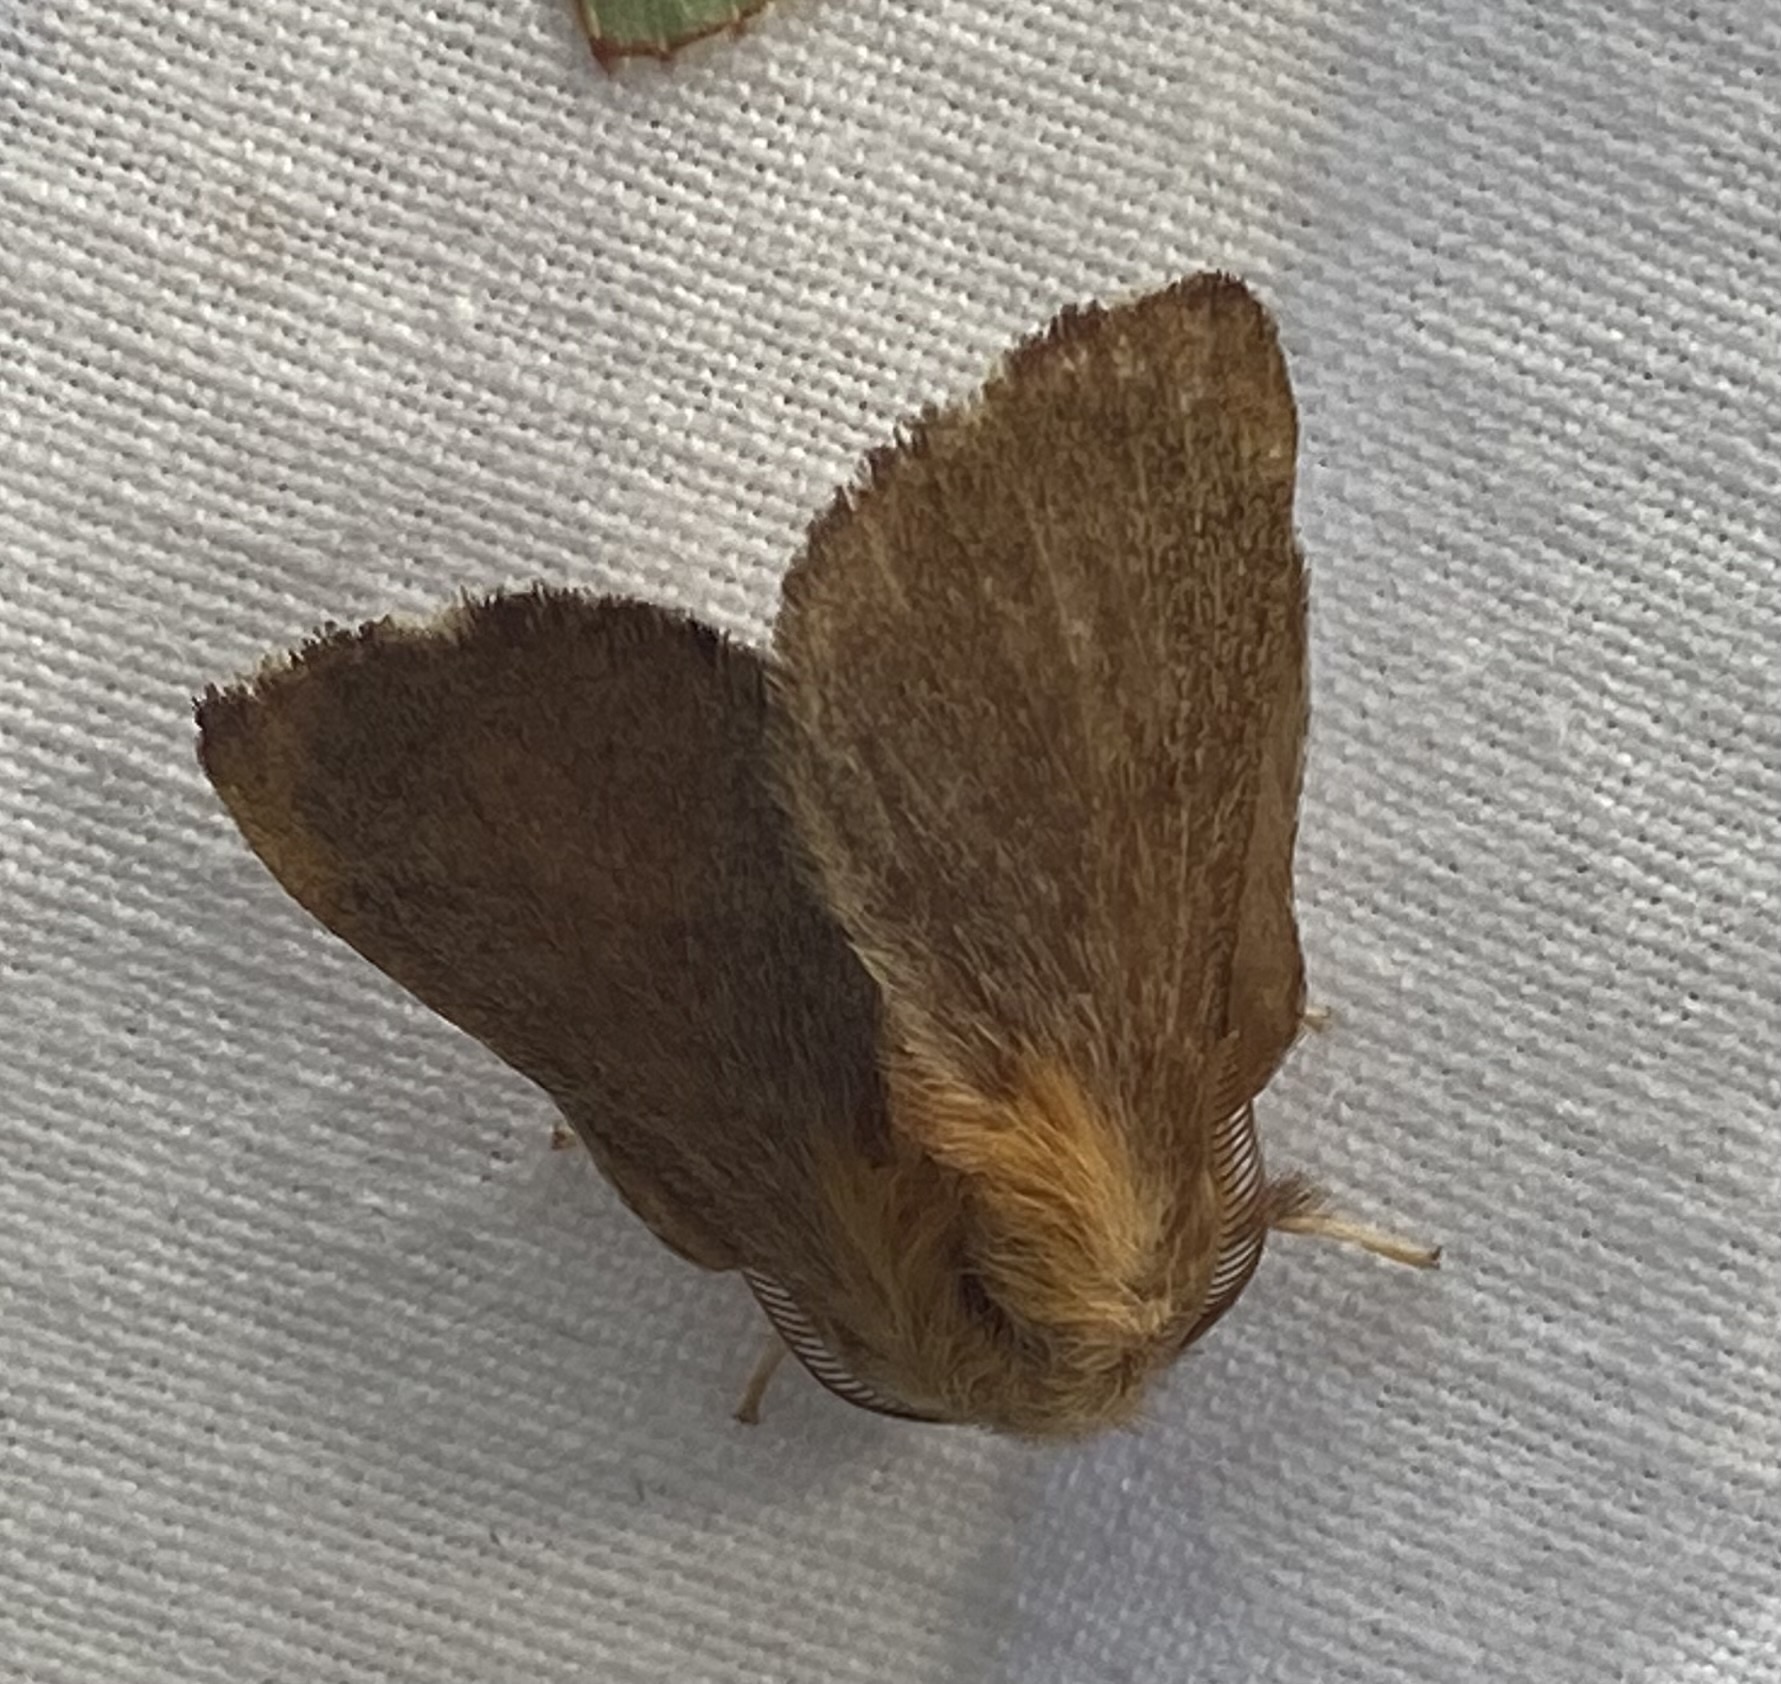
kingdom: Animalia
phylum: Arthropoda
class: Insecta
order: Lepidoptera
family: Lasiocampidae
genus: Malacosoma
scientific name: Malacosoma disstria
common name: Forest tent caterpillar
